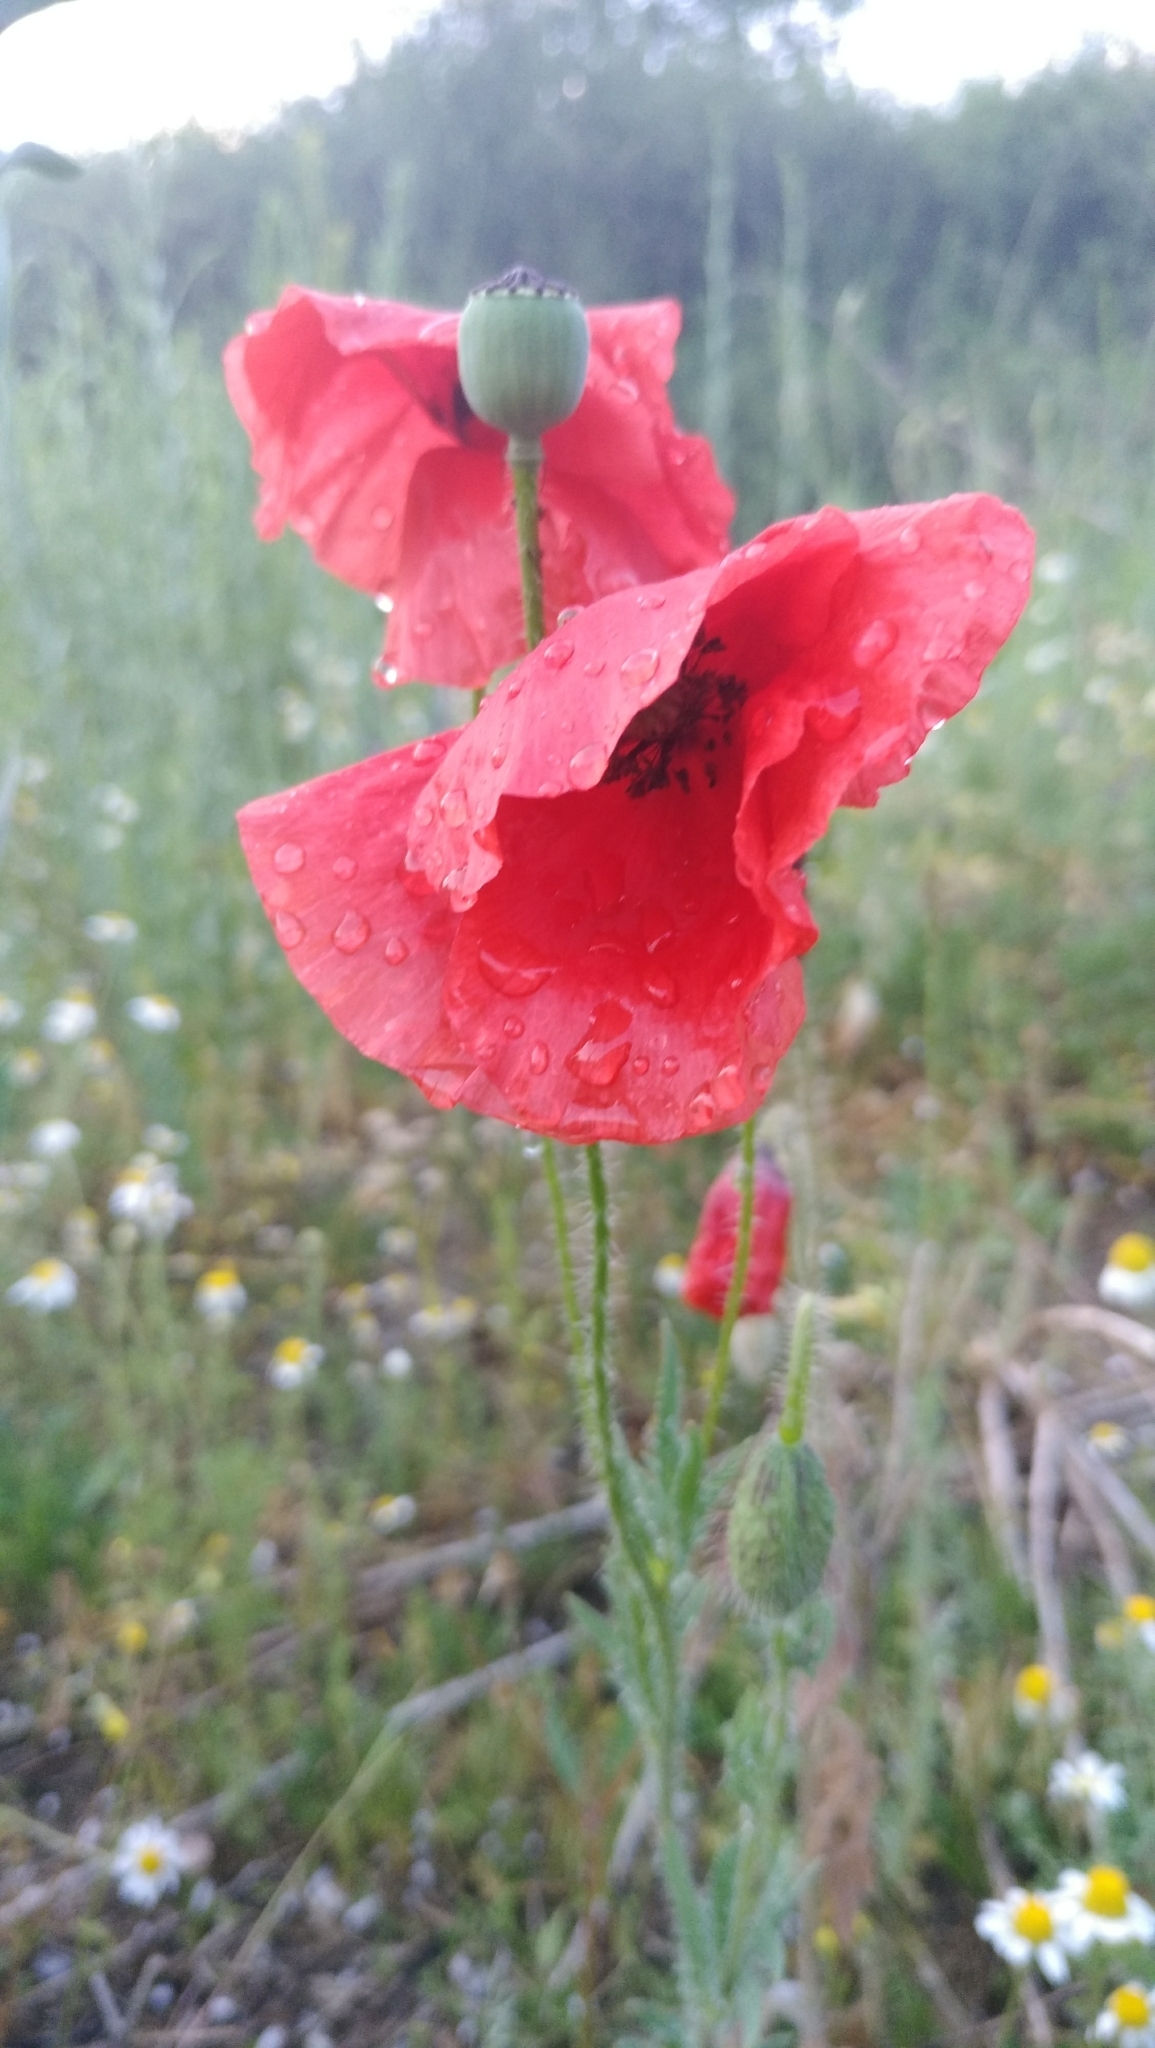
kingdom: Plantae
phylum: Tracheophyta
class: Magnoliopsida
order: Ranunculales
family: Papaveraceae
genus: Papaver
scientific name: Papaver rhoeas
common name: Corn poppy
